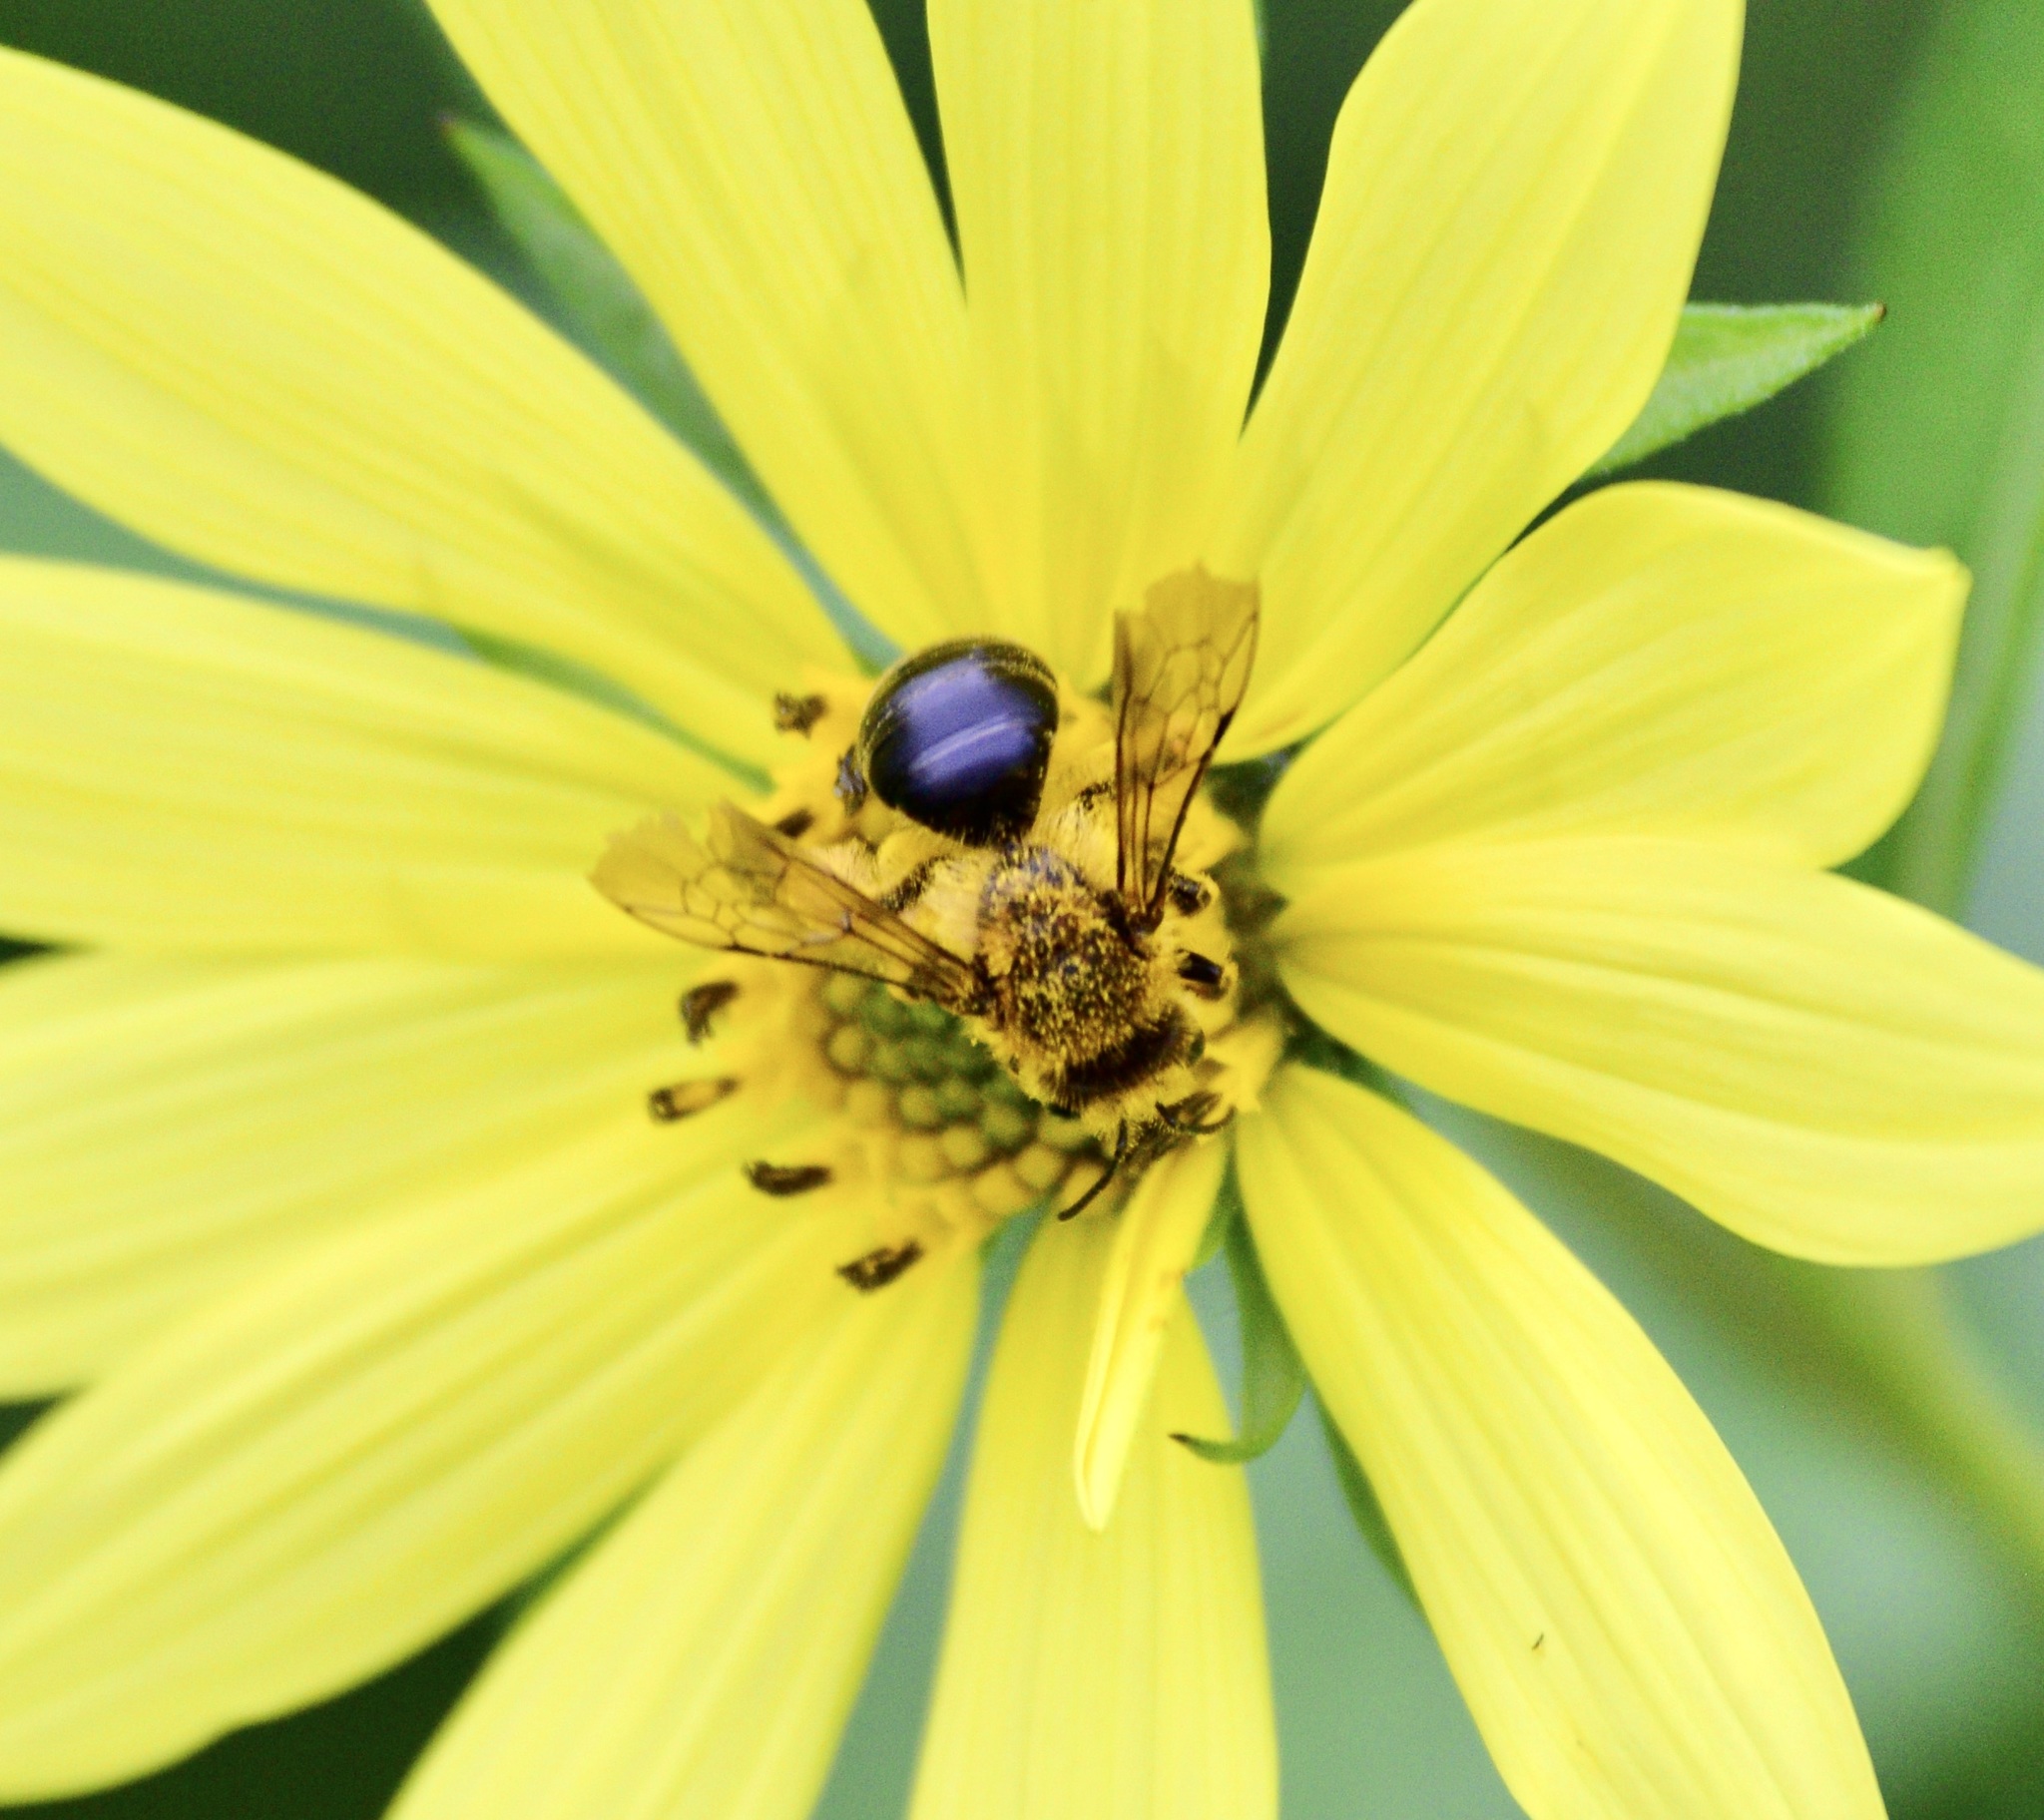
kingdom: Animalia
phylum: Arthropoda
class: Insecta
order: Hymenoptera
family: Andrenidae
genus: Andrena
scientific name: Andrena helianthi
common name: Sunflower mining bee
